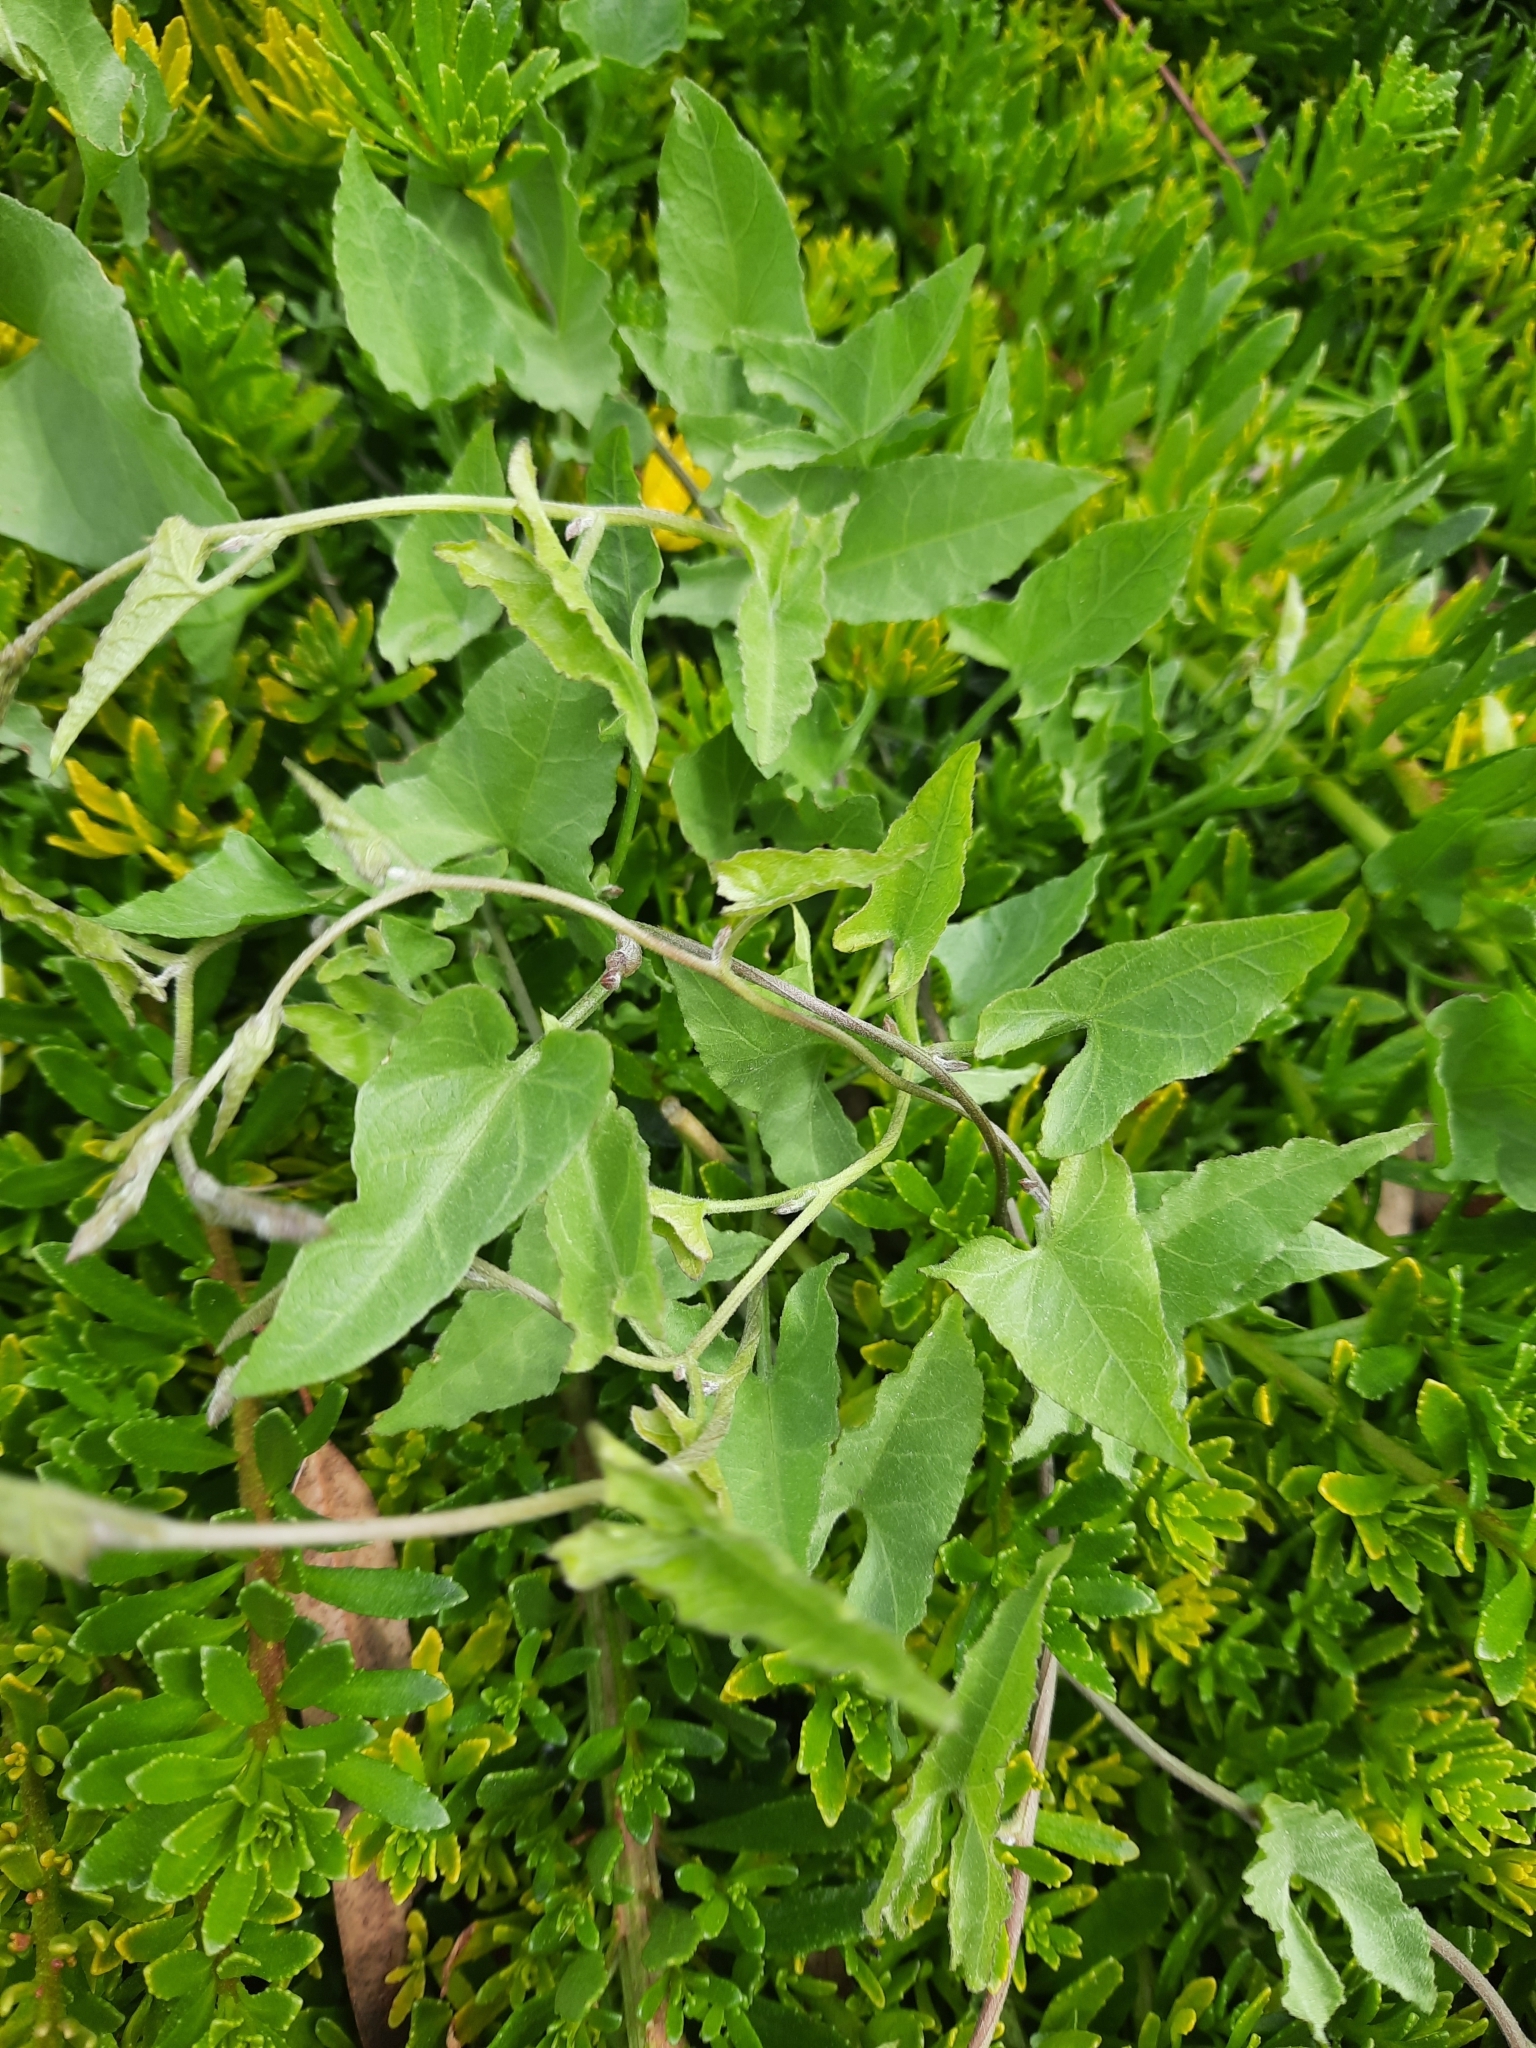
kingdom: Plantae
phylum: Tracheophyta
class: Magnoliopsida
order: Solanales
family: Convolvulaceae
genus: Calystegia
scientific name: Calystegia macrostegia
